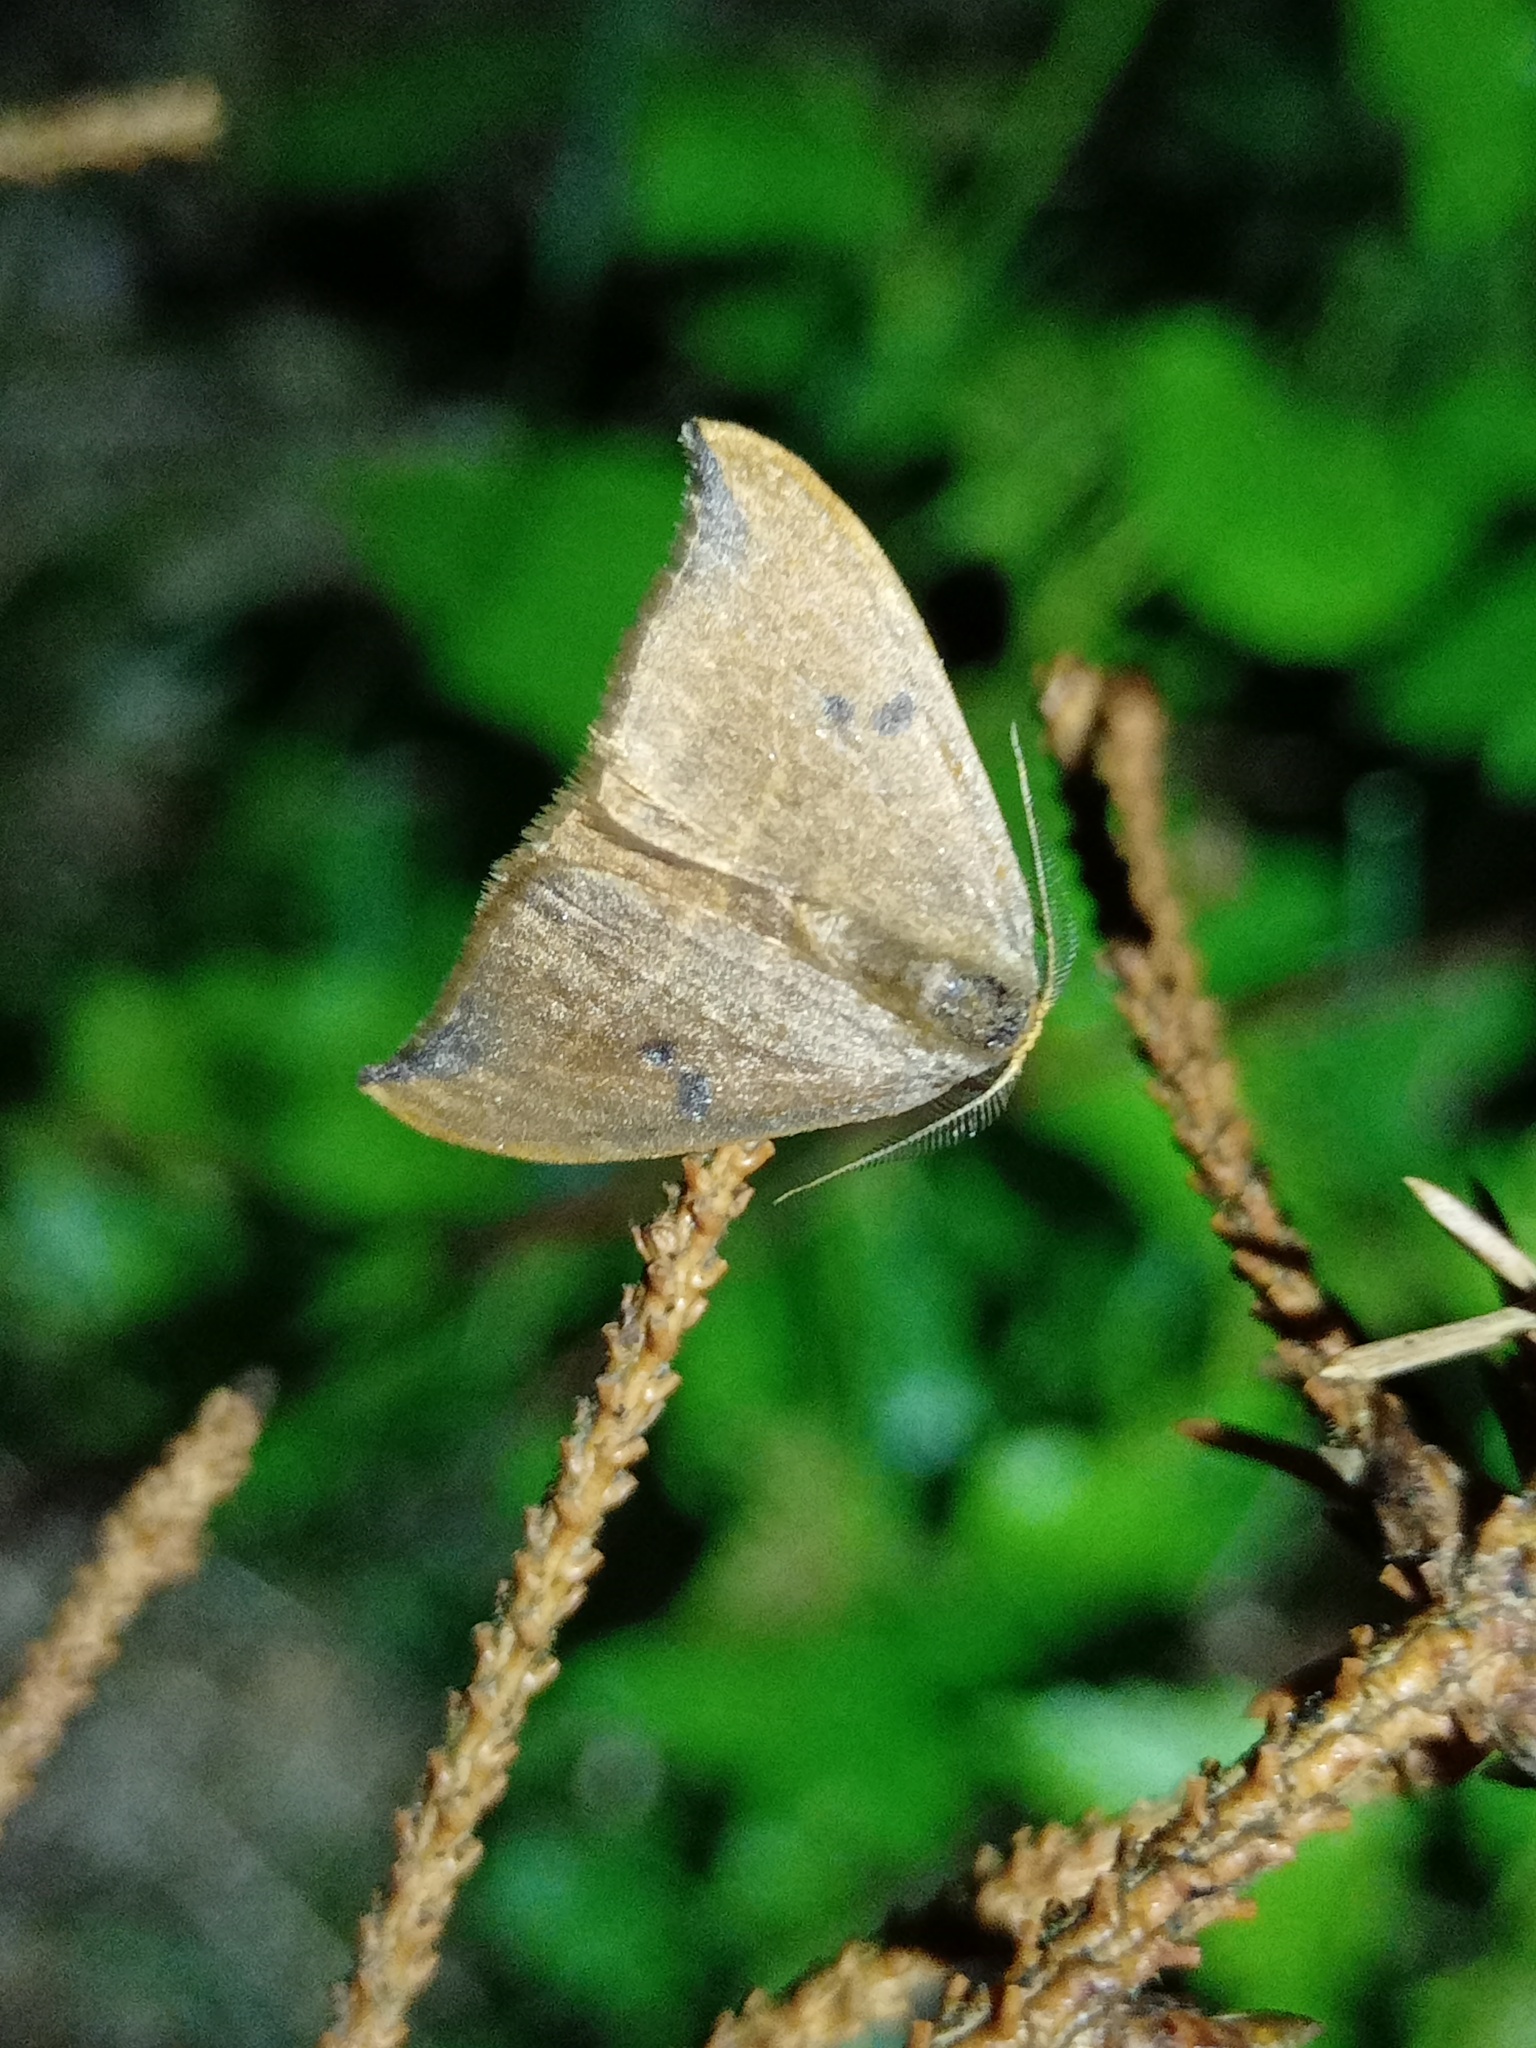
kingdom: Animalia
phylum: Arthropoda
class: Insecta
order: Lepidoptera
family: Drepanidae
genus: Watsonalla
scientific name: Watsonalla binaria
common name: Oak hook-tip
